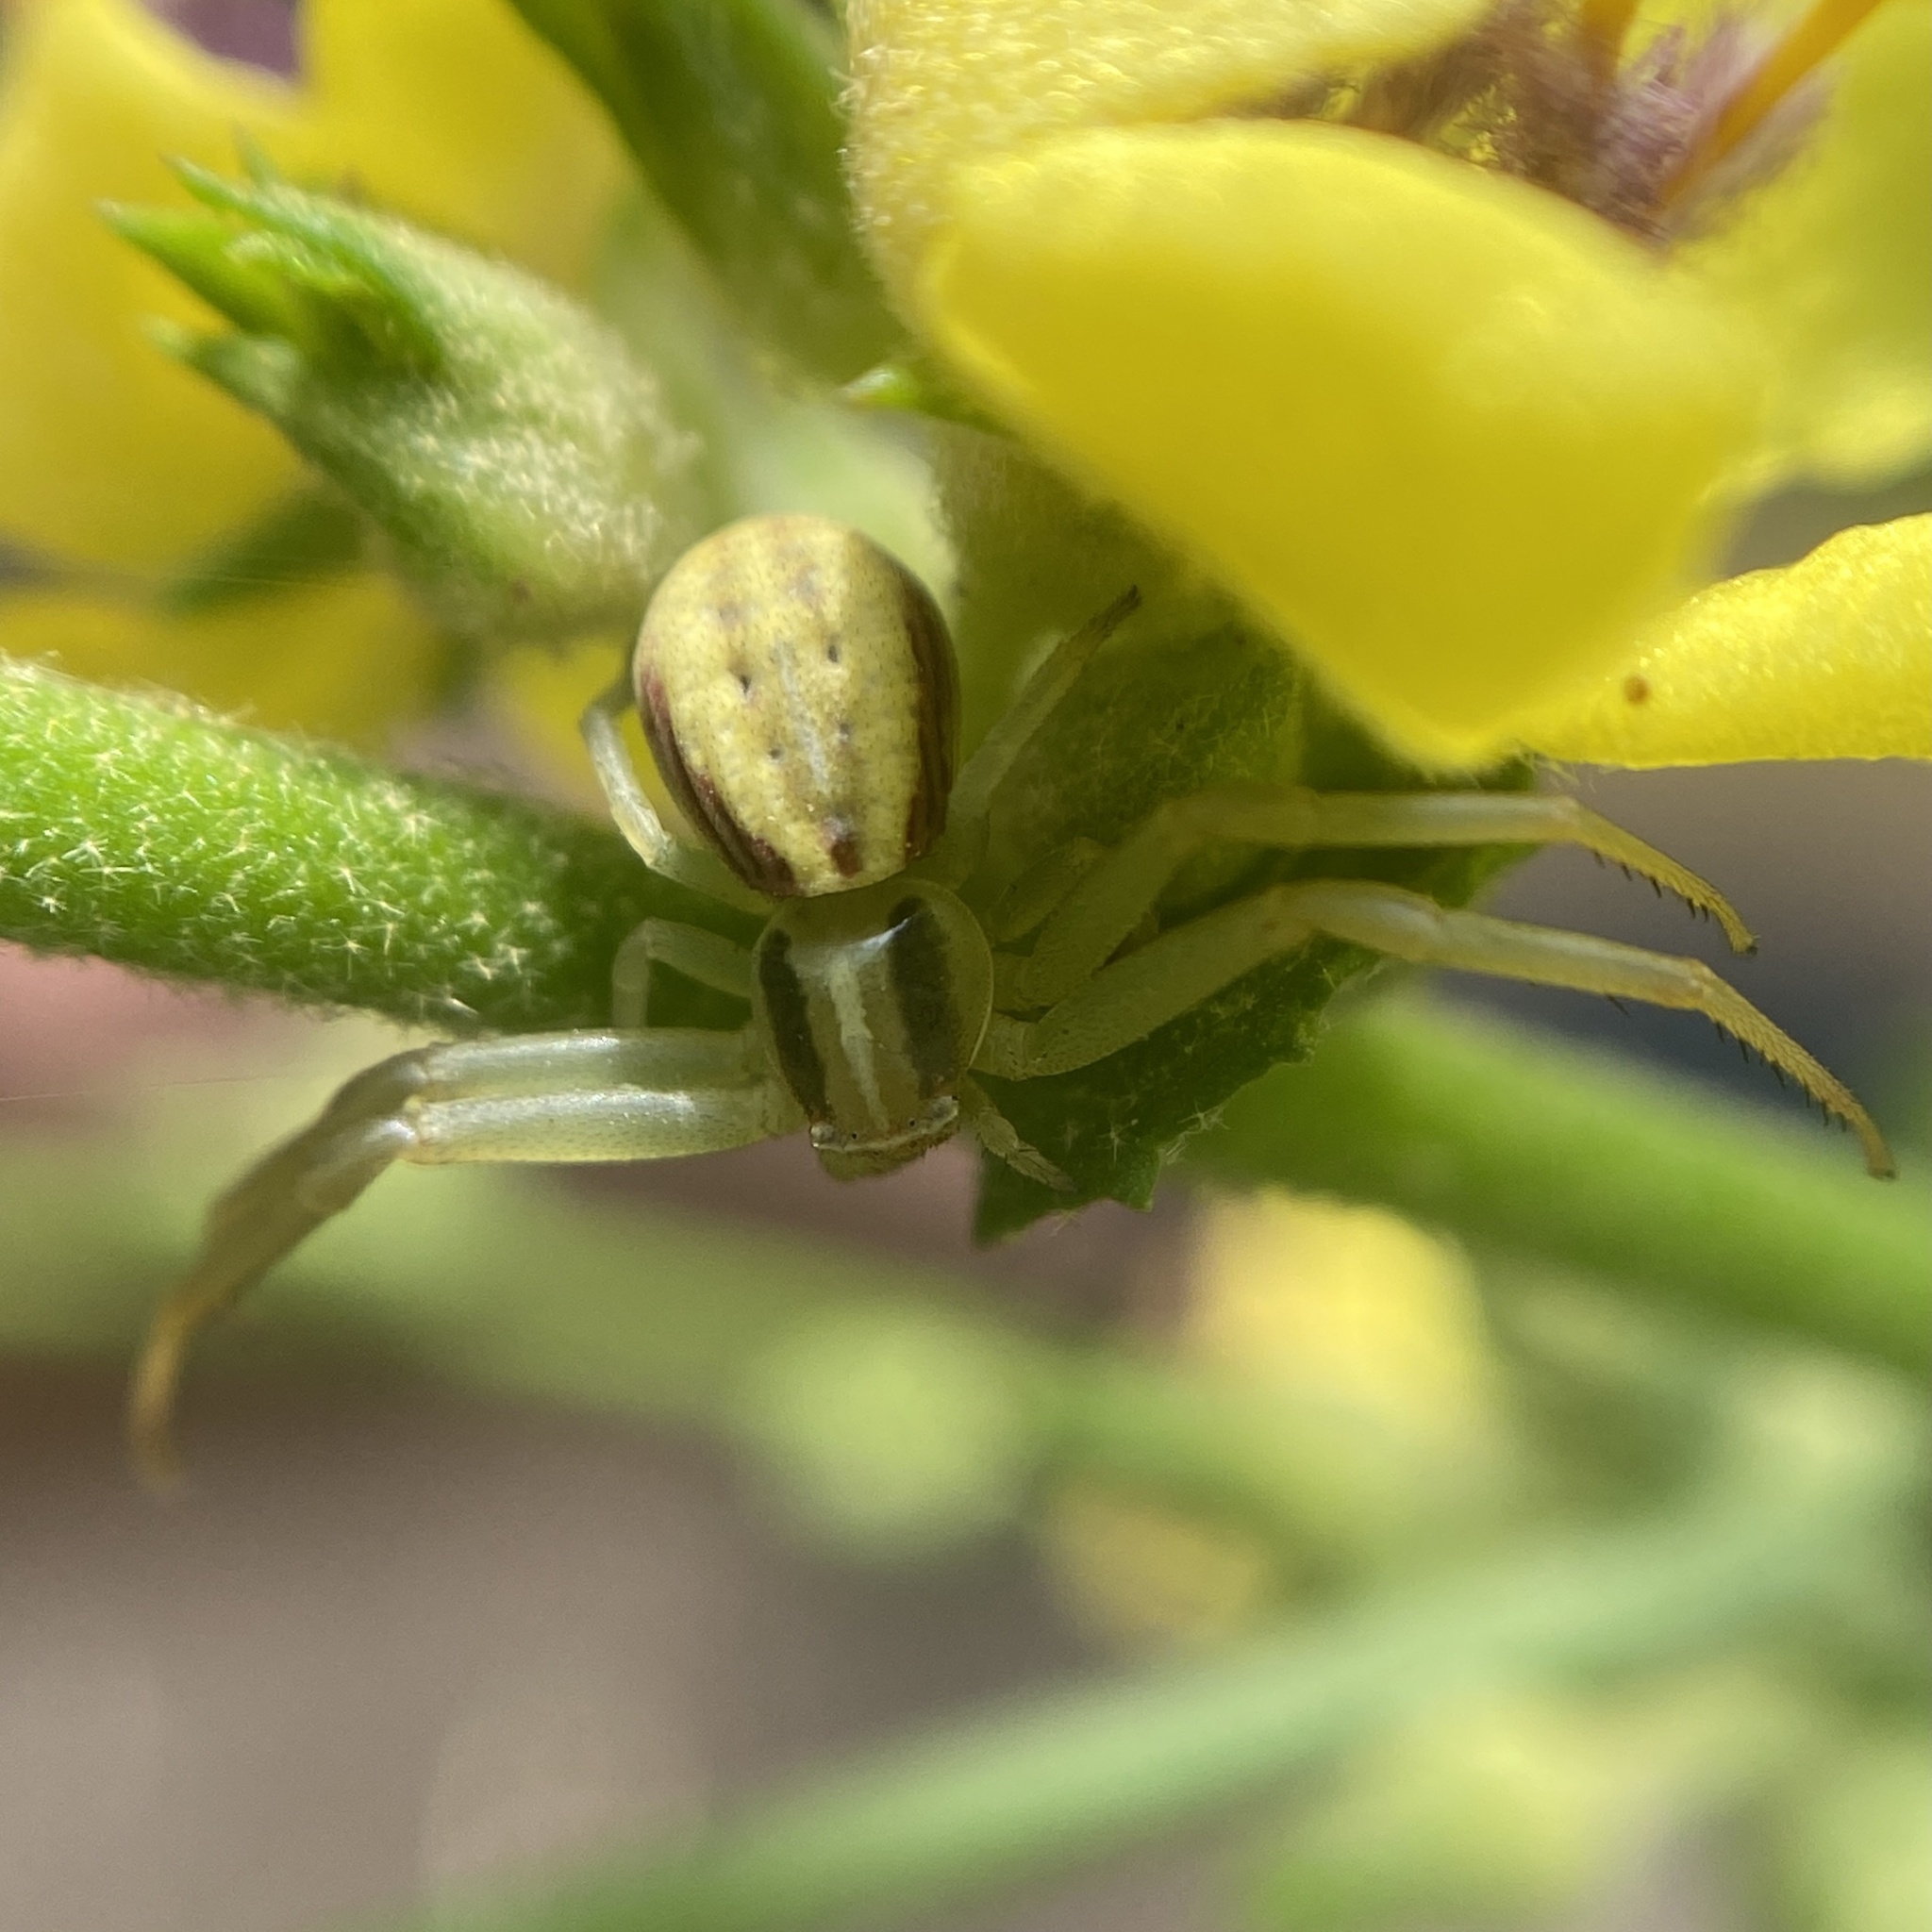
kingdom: Animalia
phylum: Arthropoda
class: Arachnida
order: Araneae
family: Thomisidae
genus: Runcinia
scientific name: Runcinia grammica
